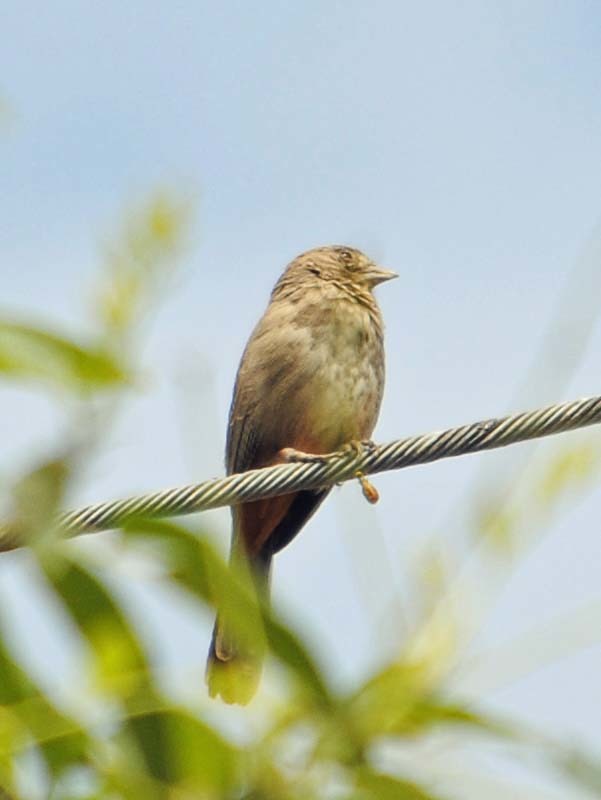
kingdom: Animalia
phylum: Chordata
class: Aves
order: Passeriformes
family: Passerellidae
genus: Melozone
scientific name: Melozone fusca
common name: Canyon towhee
